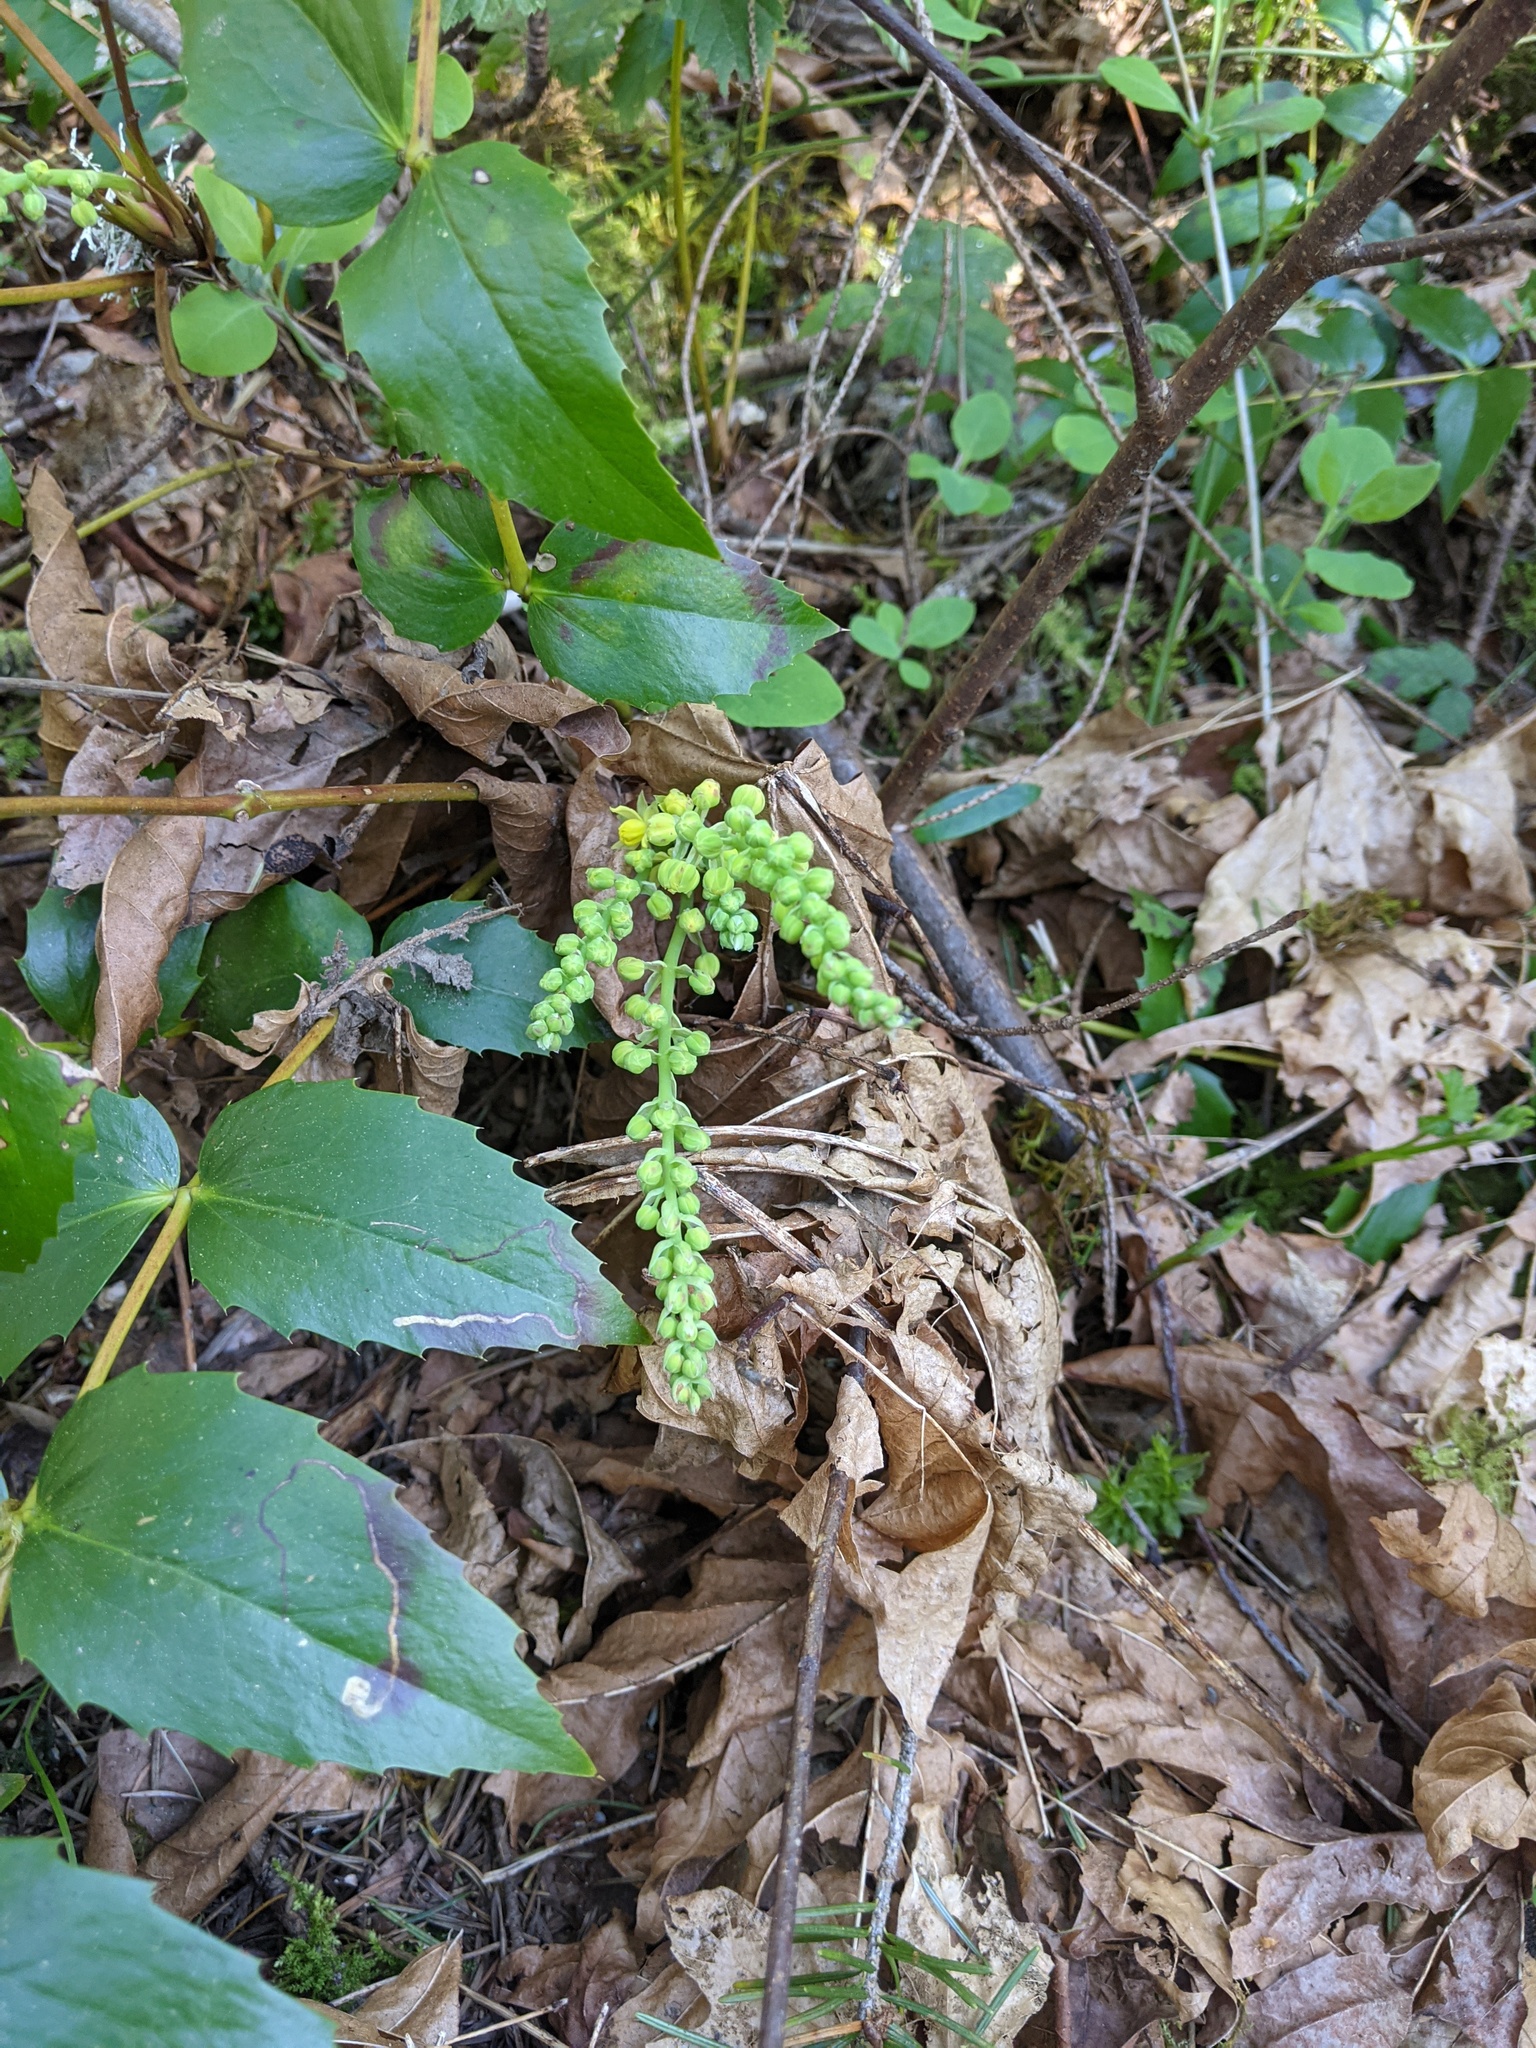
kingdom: Plantae
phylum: Tracheophyta
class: Magnoliopsida
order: Ranunculales
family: Berberidaceae
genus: Mahonia
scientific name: Mahonia nervosa
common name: Cascade oregon-grape
